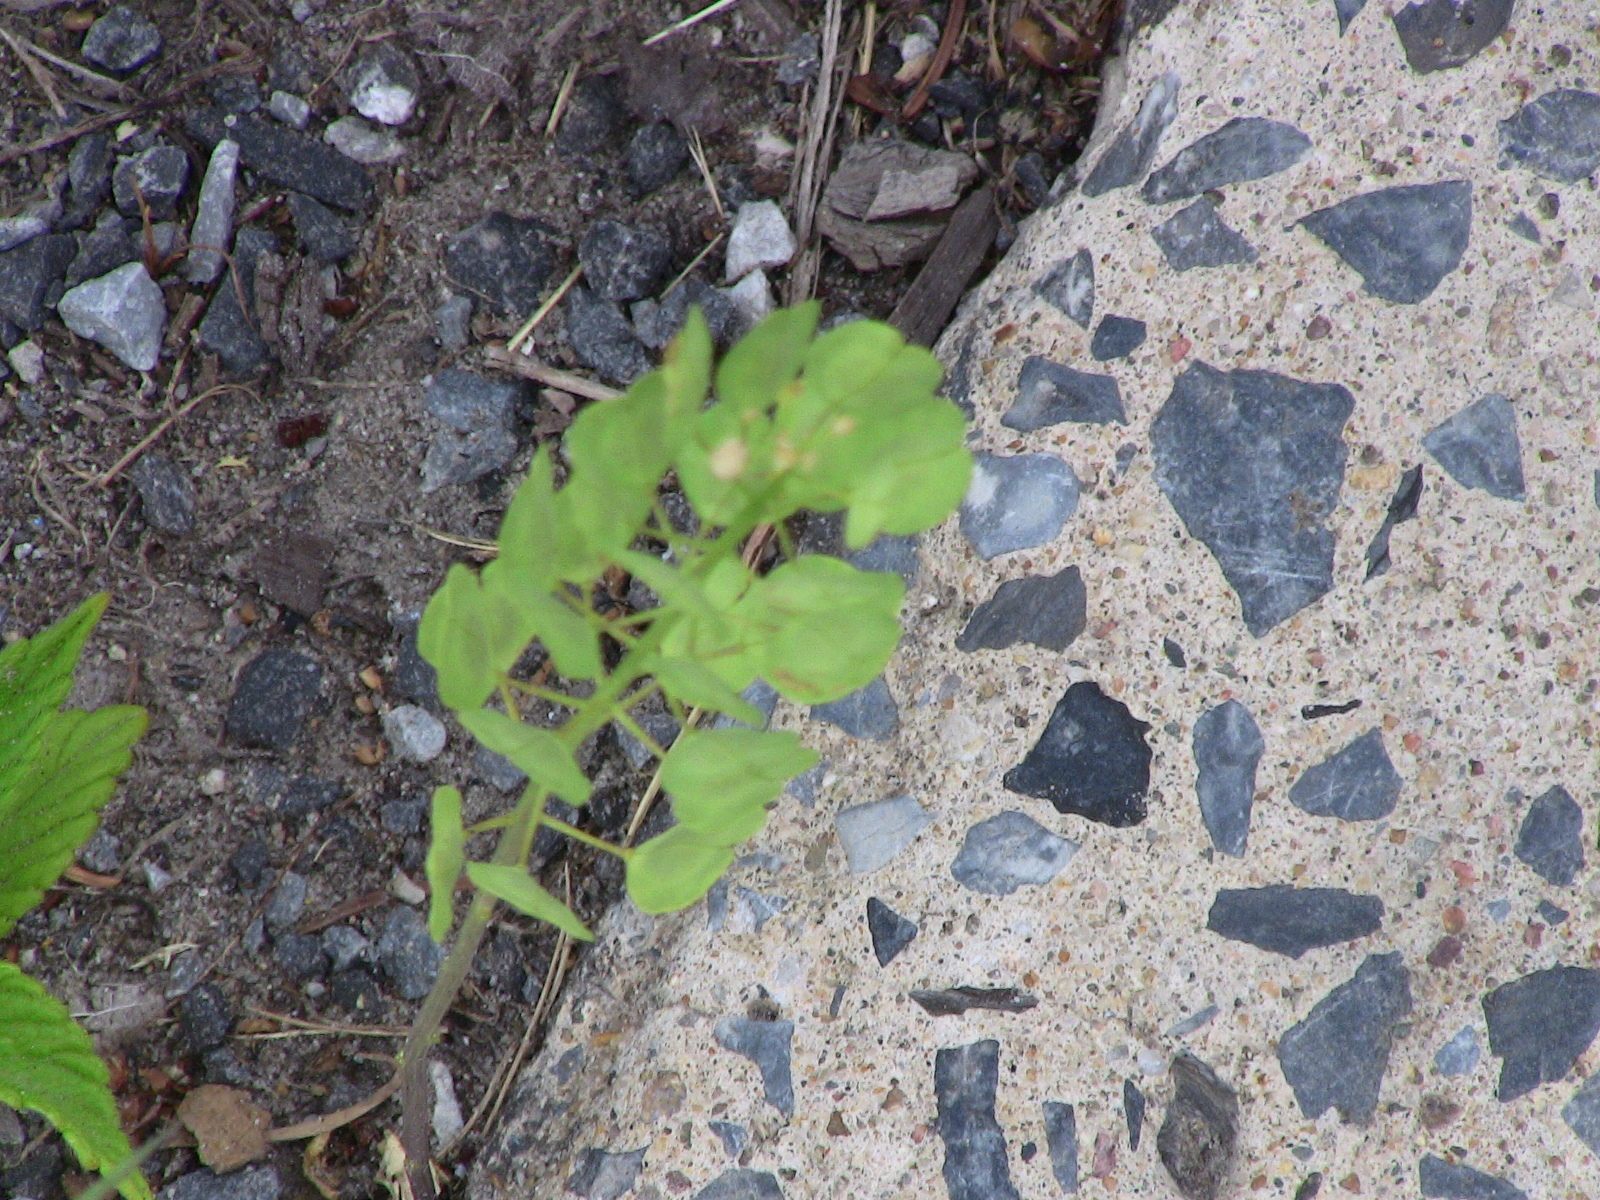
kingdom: Plantae
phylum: Tracheophyta
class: Magnoliopsida
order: Brassicales
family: Brassicaceae
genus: Thlaspi
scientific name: Thlaspi arvense
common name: Field pennycress
